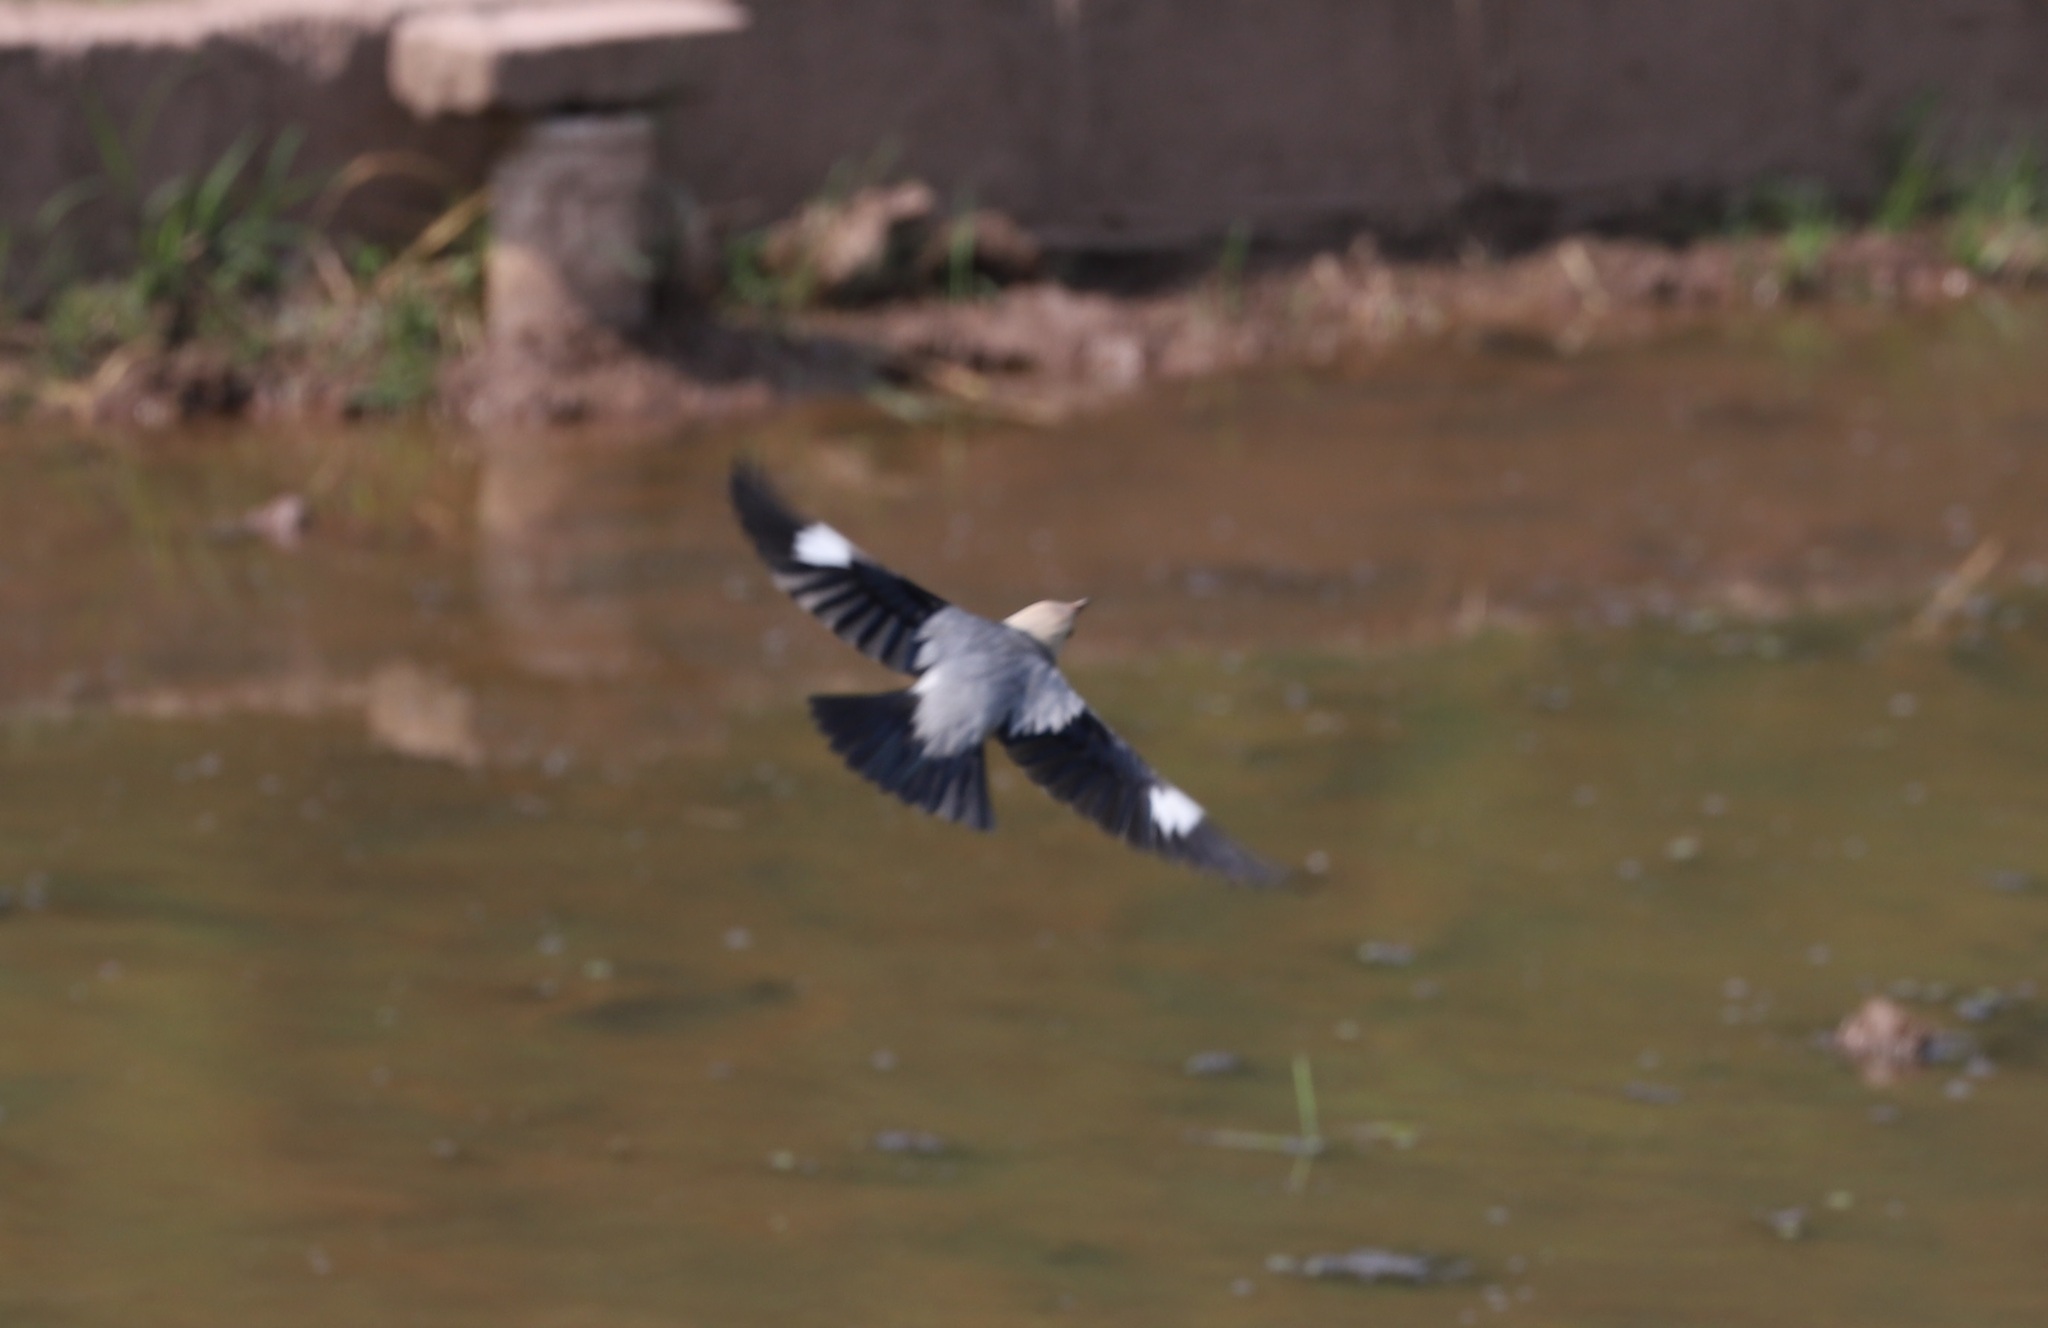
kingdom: Animalia
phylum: Chordata
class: Aves
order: Passeriformes
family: Sturnidae
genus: Spodiopsar
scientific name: Spodiopsar sericeus
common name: Red-billed starling
